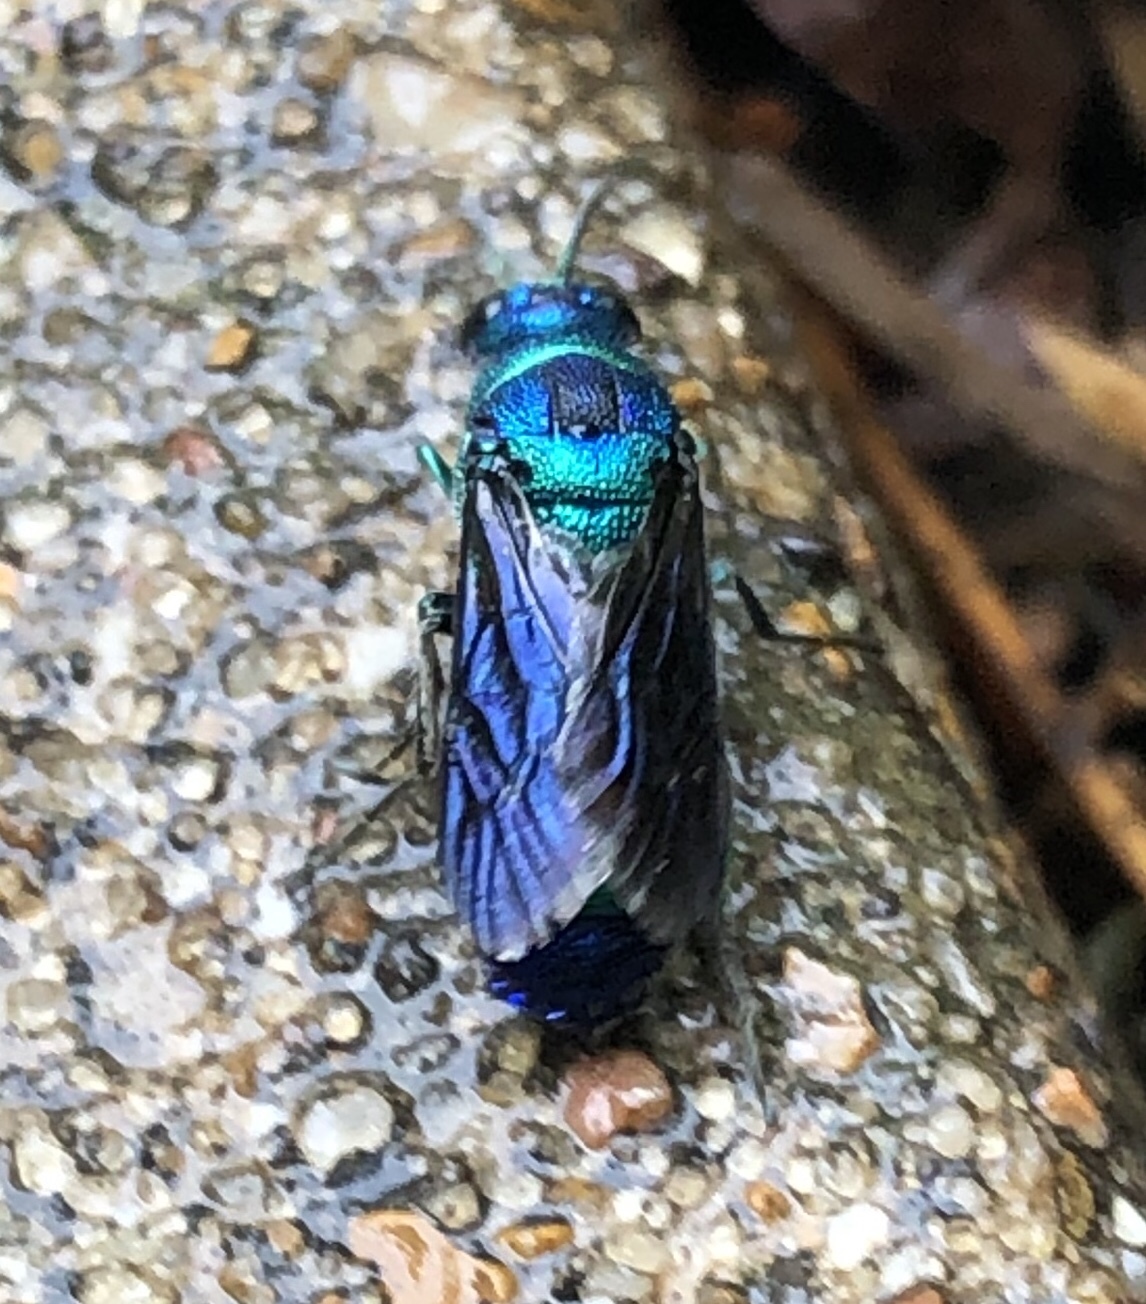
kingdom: Animalia
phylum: Arthropoda
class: Insecta
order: Hymenoptera
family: Chrysididae
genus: Chrysis
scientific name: Chrysis angolensis
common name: Cuckoo wasp
